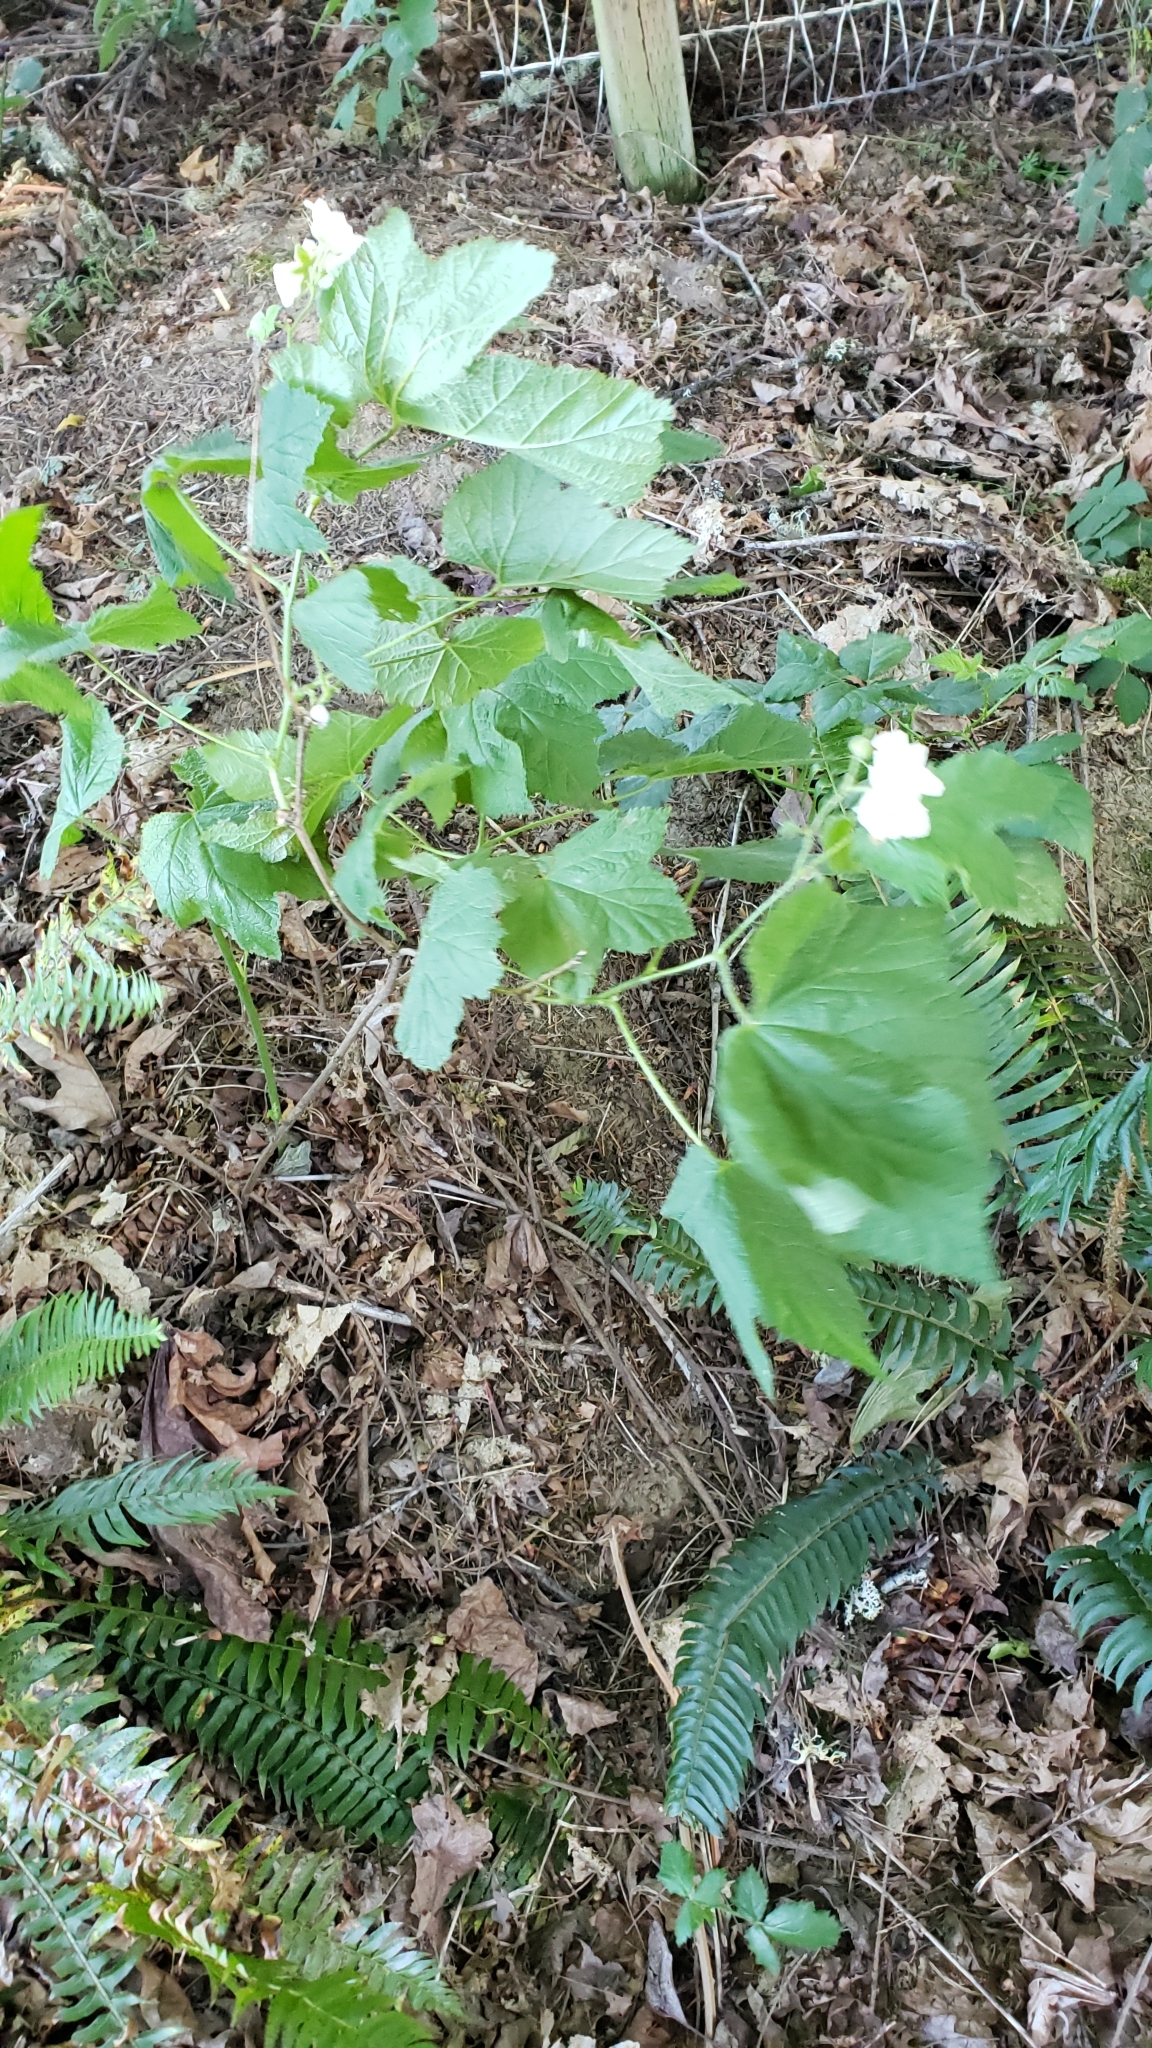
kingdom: Plantae
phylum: Tracheophyta
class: Magnoliopsida
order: Rosales
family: Rosaceae
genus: Rubus
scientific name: Rubus parviflorus
